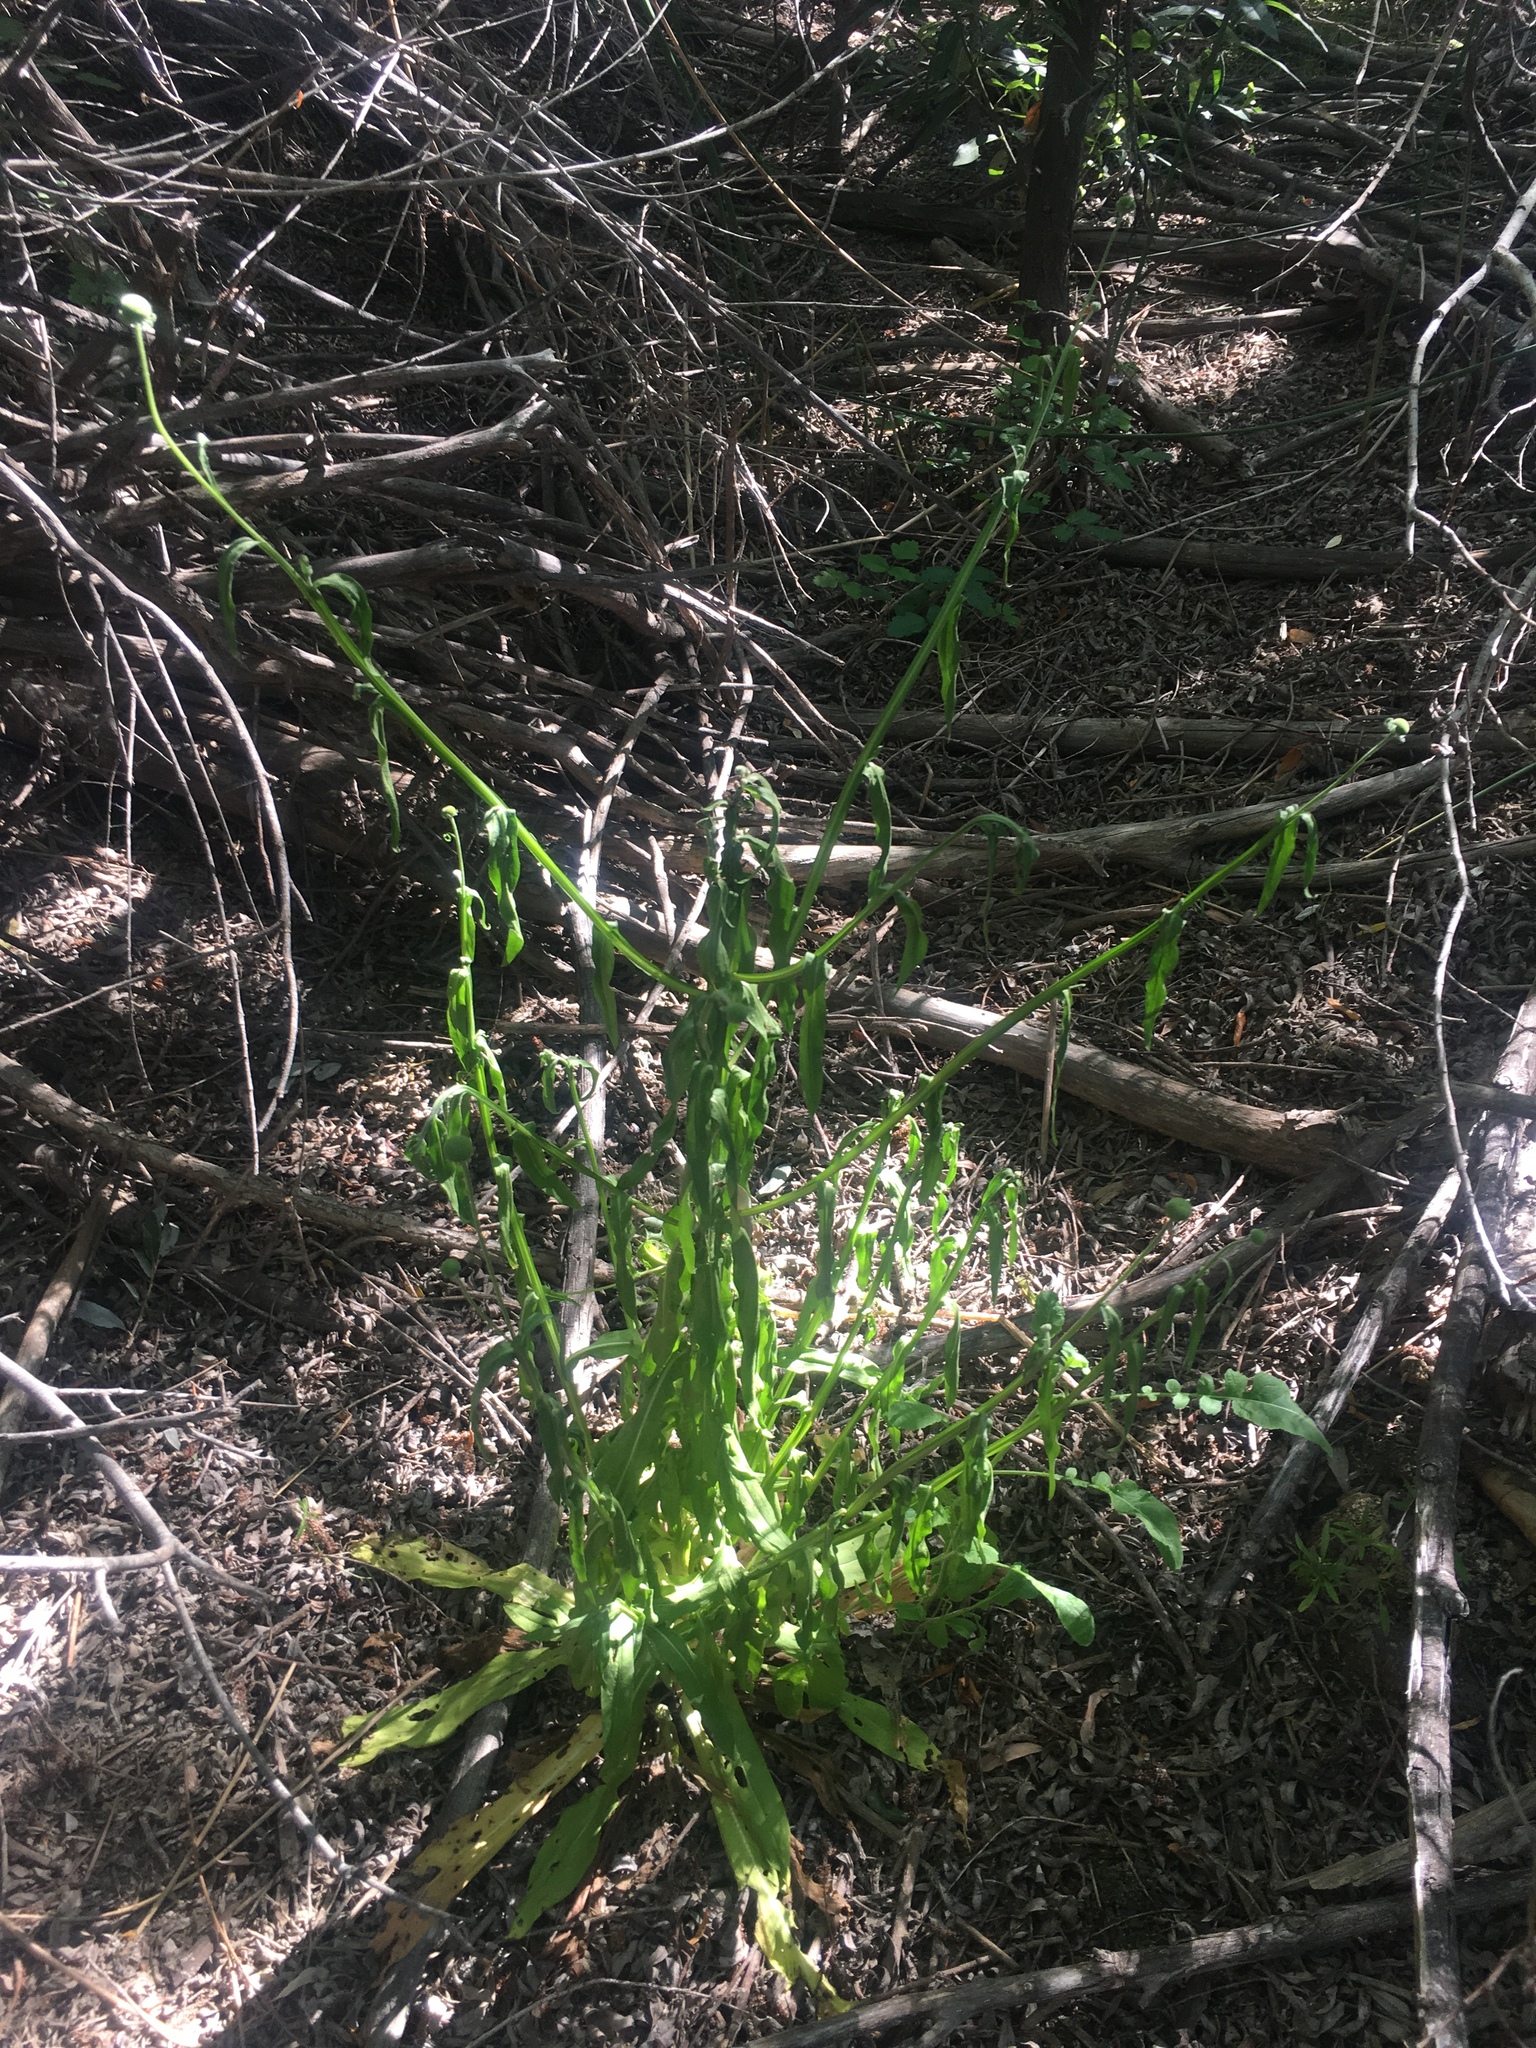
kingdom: Plantae
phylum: Tracheophyta
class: Magnoliopsida
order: Asterales
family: Asteraceae
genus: Helenium
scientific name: Helenium puberulum
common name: Sneezewort
